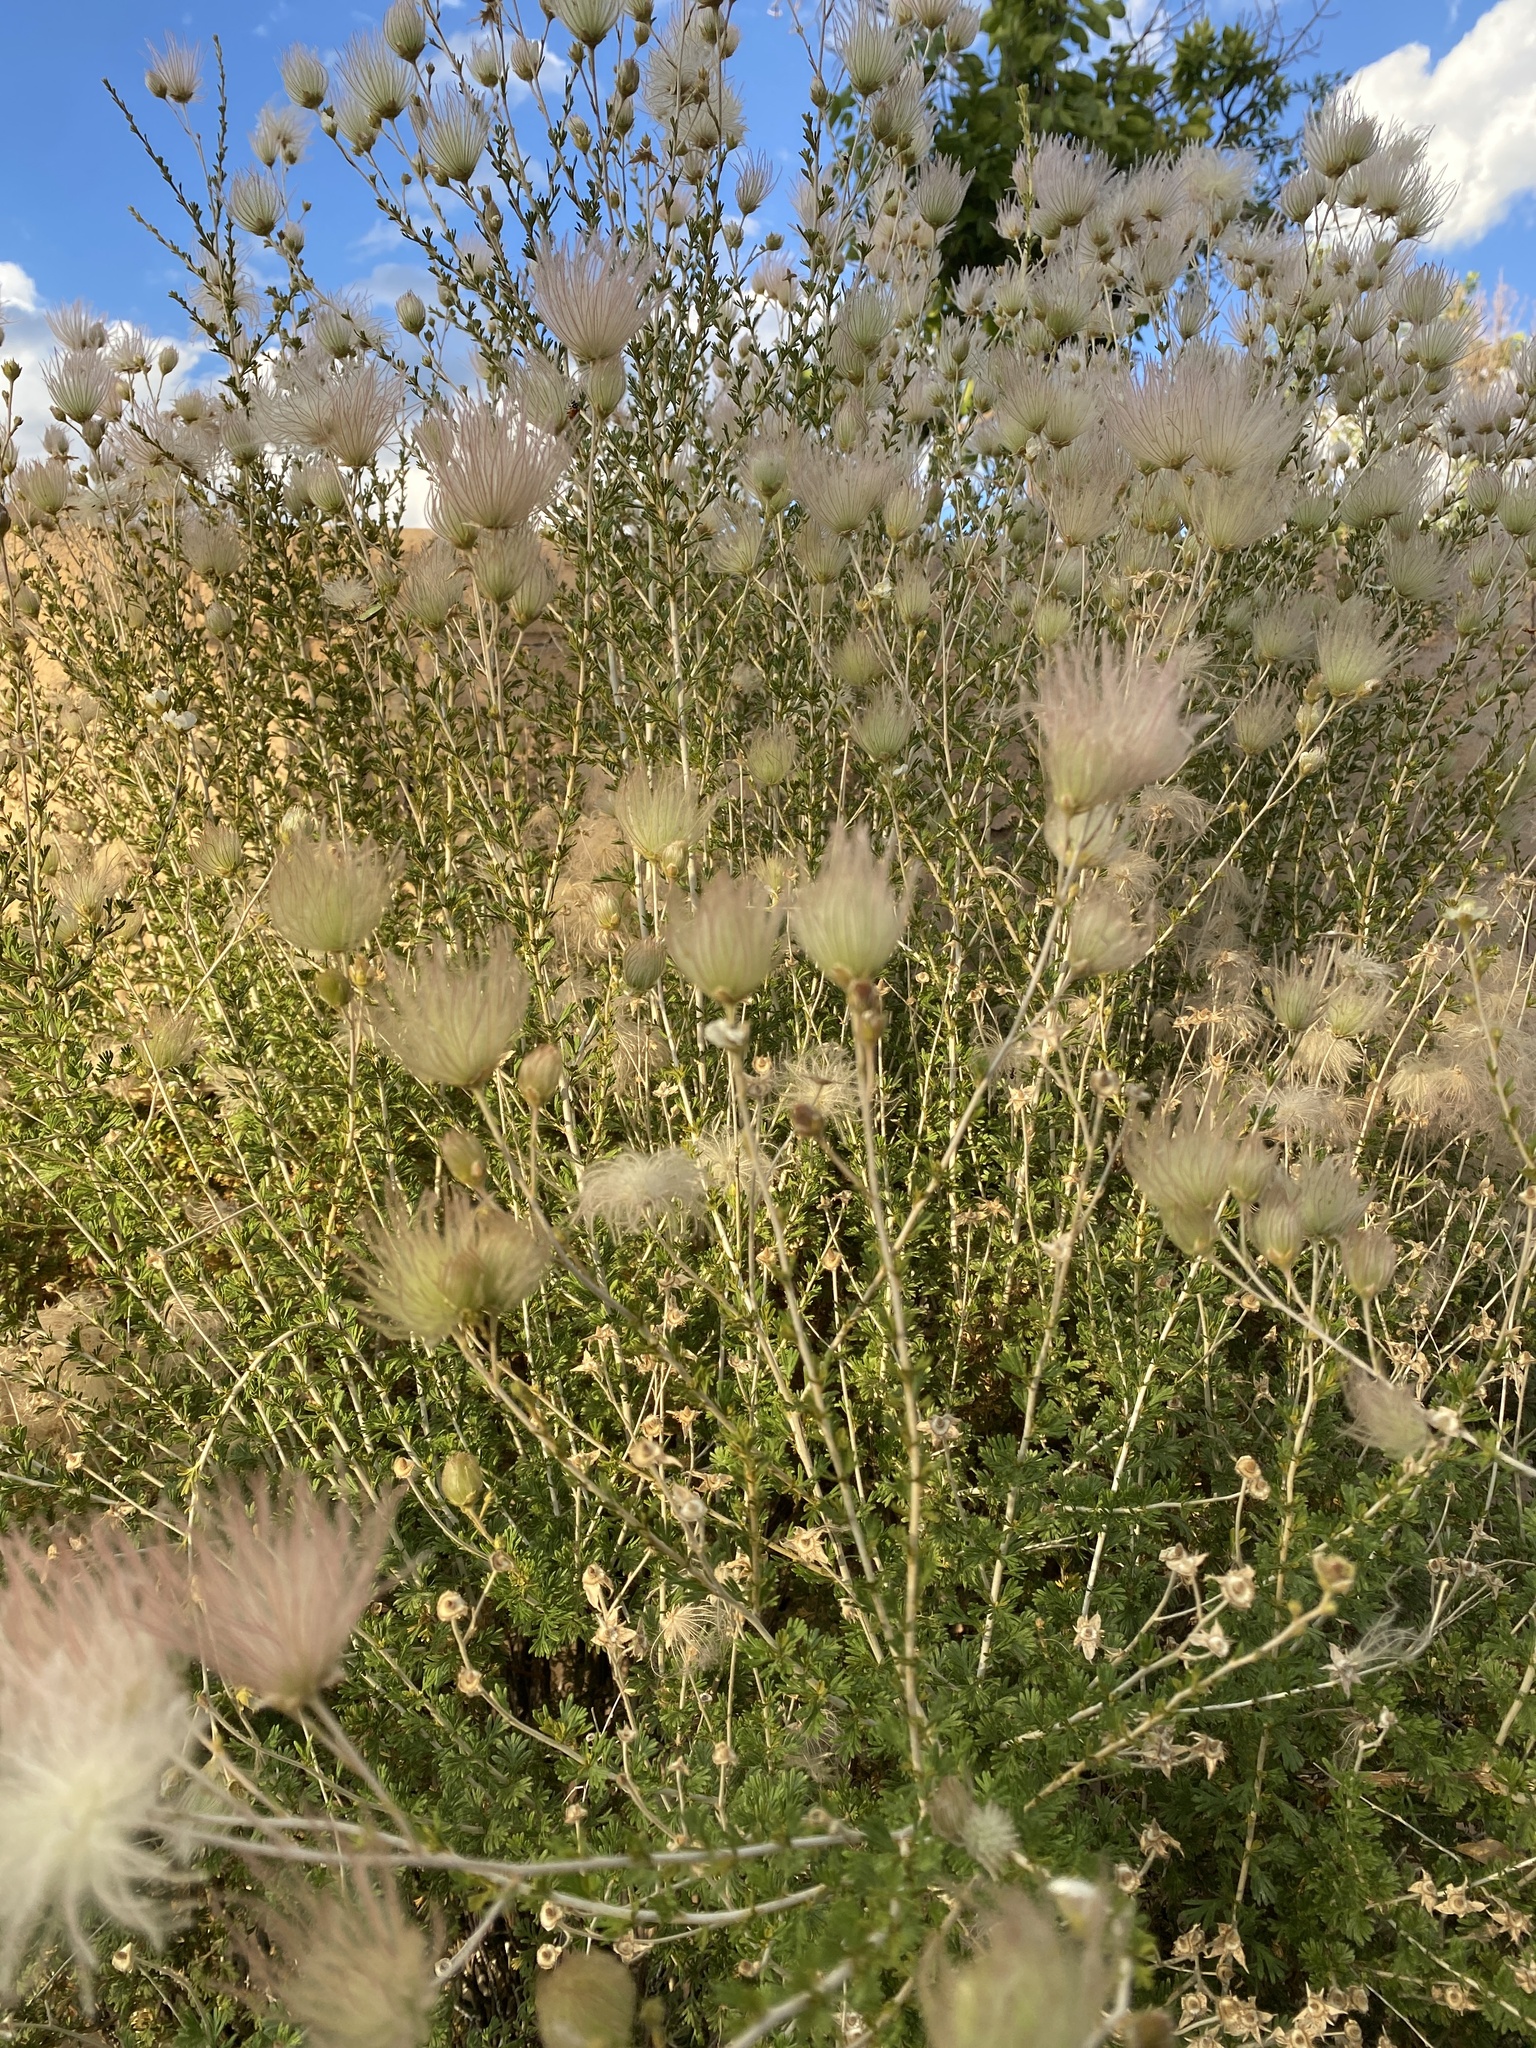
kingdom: Plantae
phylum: Tracheophyta
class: Magnoliopsida
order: Rosales
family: Rosaceae
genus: Fallugia
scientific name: Fallugia paradoxa
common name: Apache-plume
